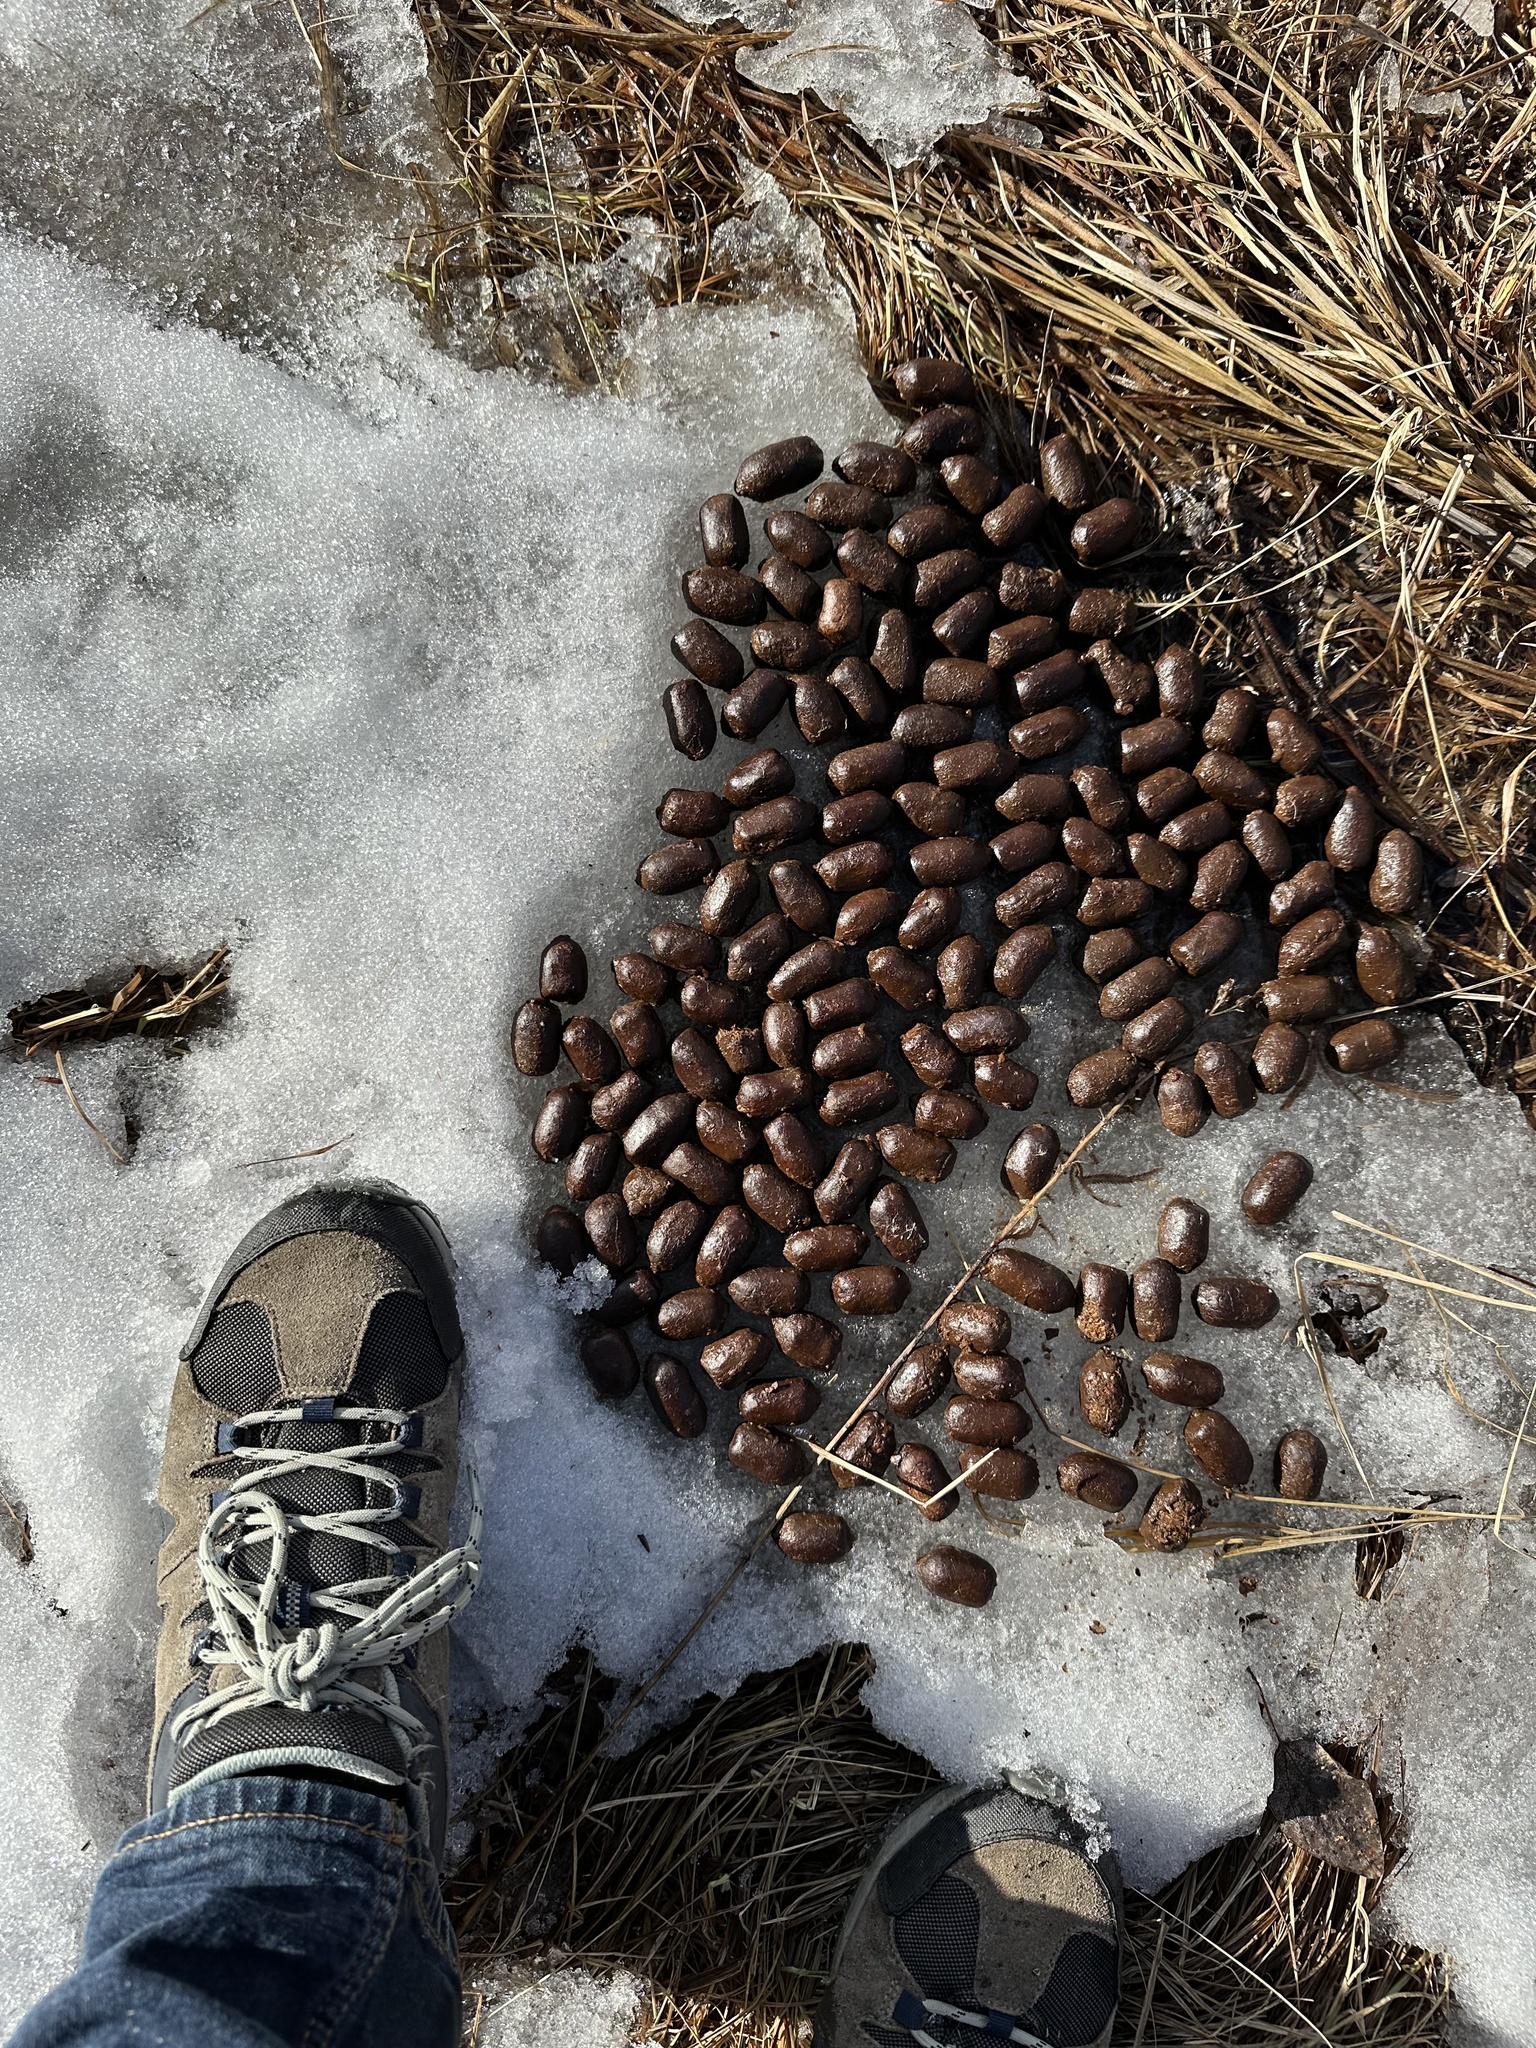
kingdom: Animalia
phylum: Chordata
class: Mammalia
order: Artiodactyla
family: Cervidae
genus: Alces
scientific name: Alces alces
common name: Moose
